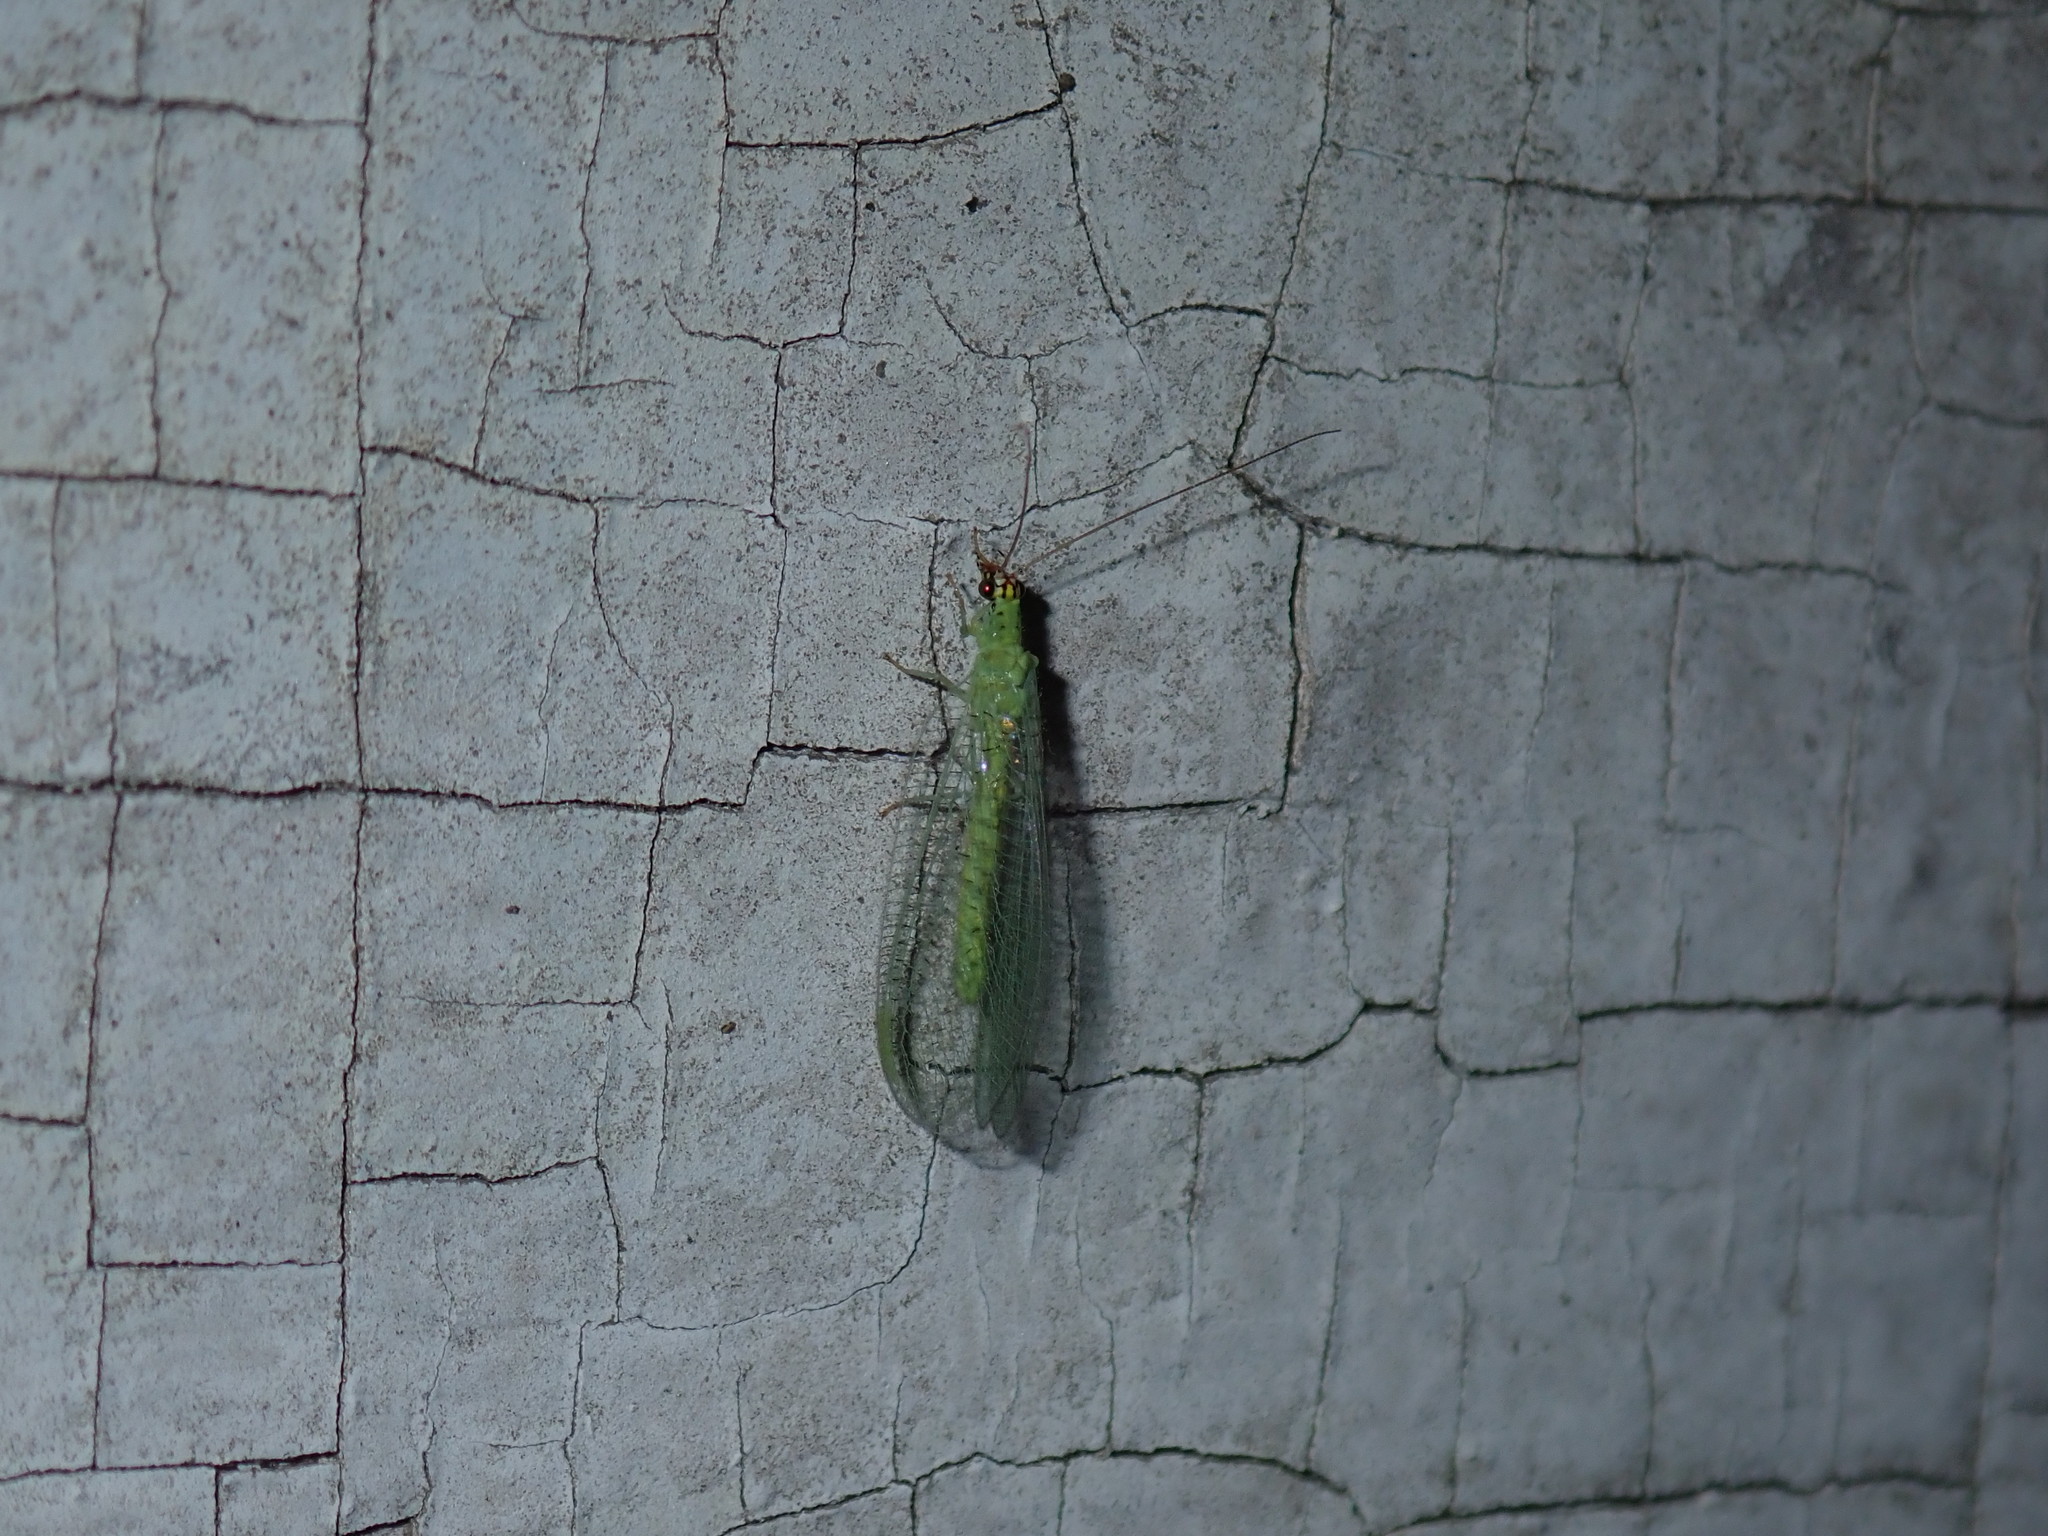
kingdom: Animalia
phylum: Arthropoda
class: Insecta
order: Neuroptera
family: Chrysopidae
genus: Chrysopa
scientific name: Chrysopa oculata
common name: Golden-eyed lacewing
